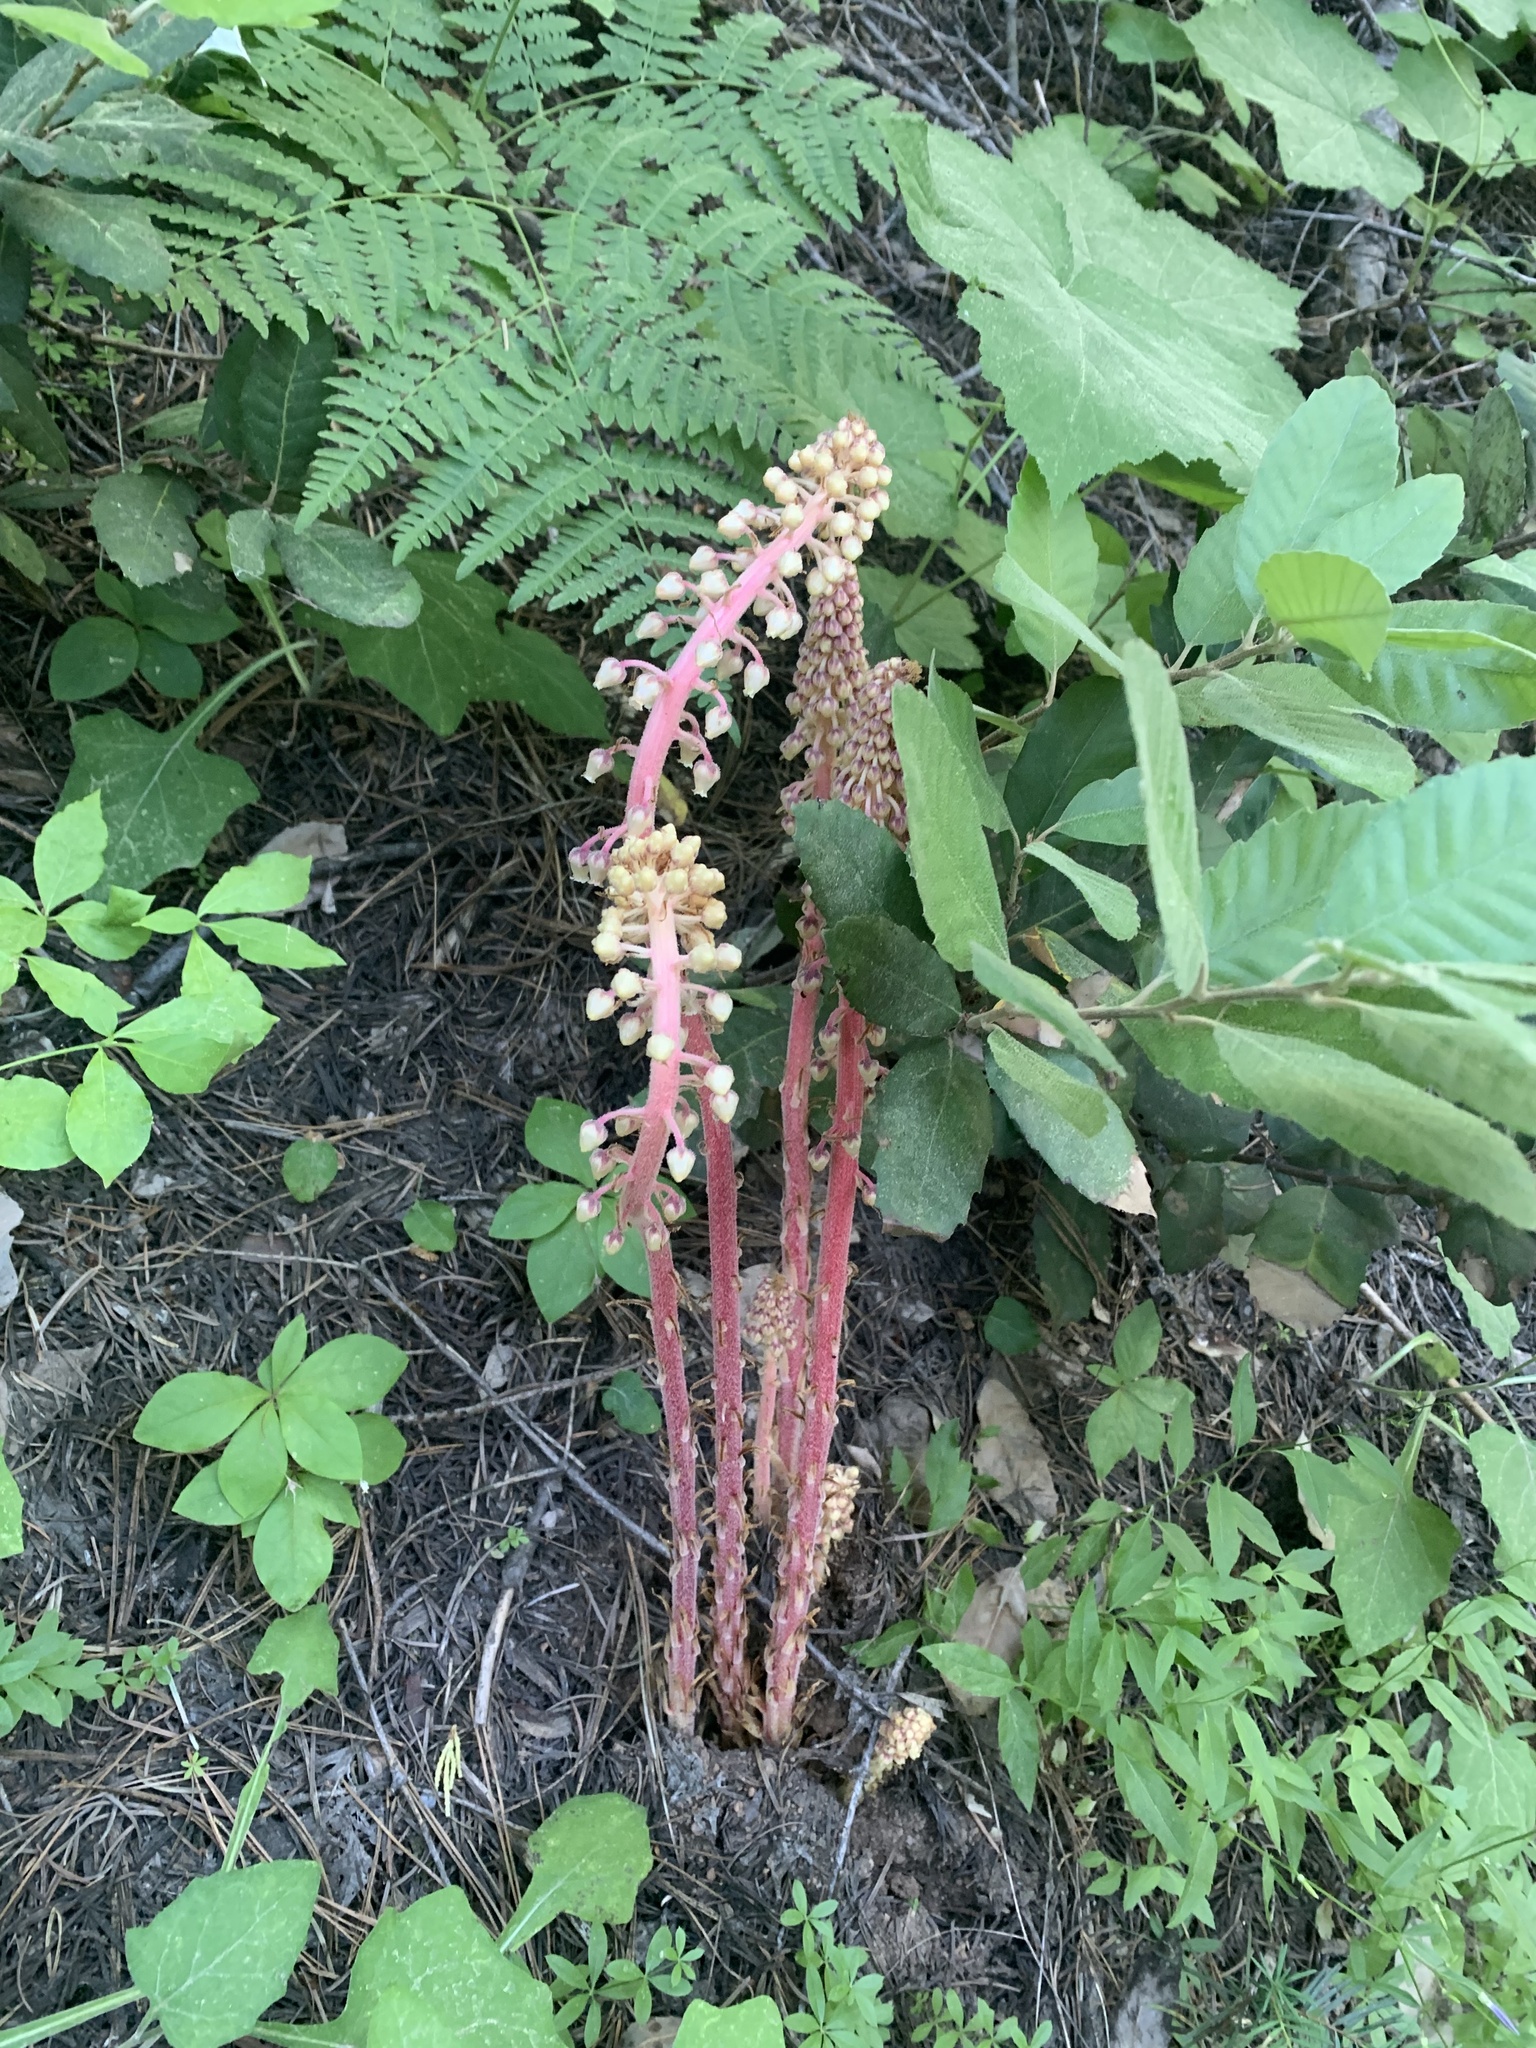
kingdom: Plantae
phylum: Tracheophyta
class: Magnoliopsida
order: Ericales
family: Ericaceae
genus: Pterospora
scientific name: Pterospora andromedea
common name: Giant bird's-nest
